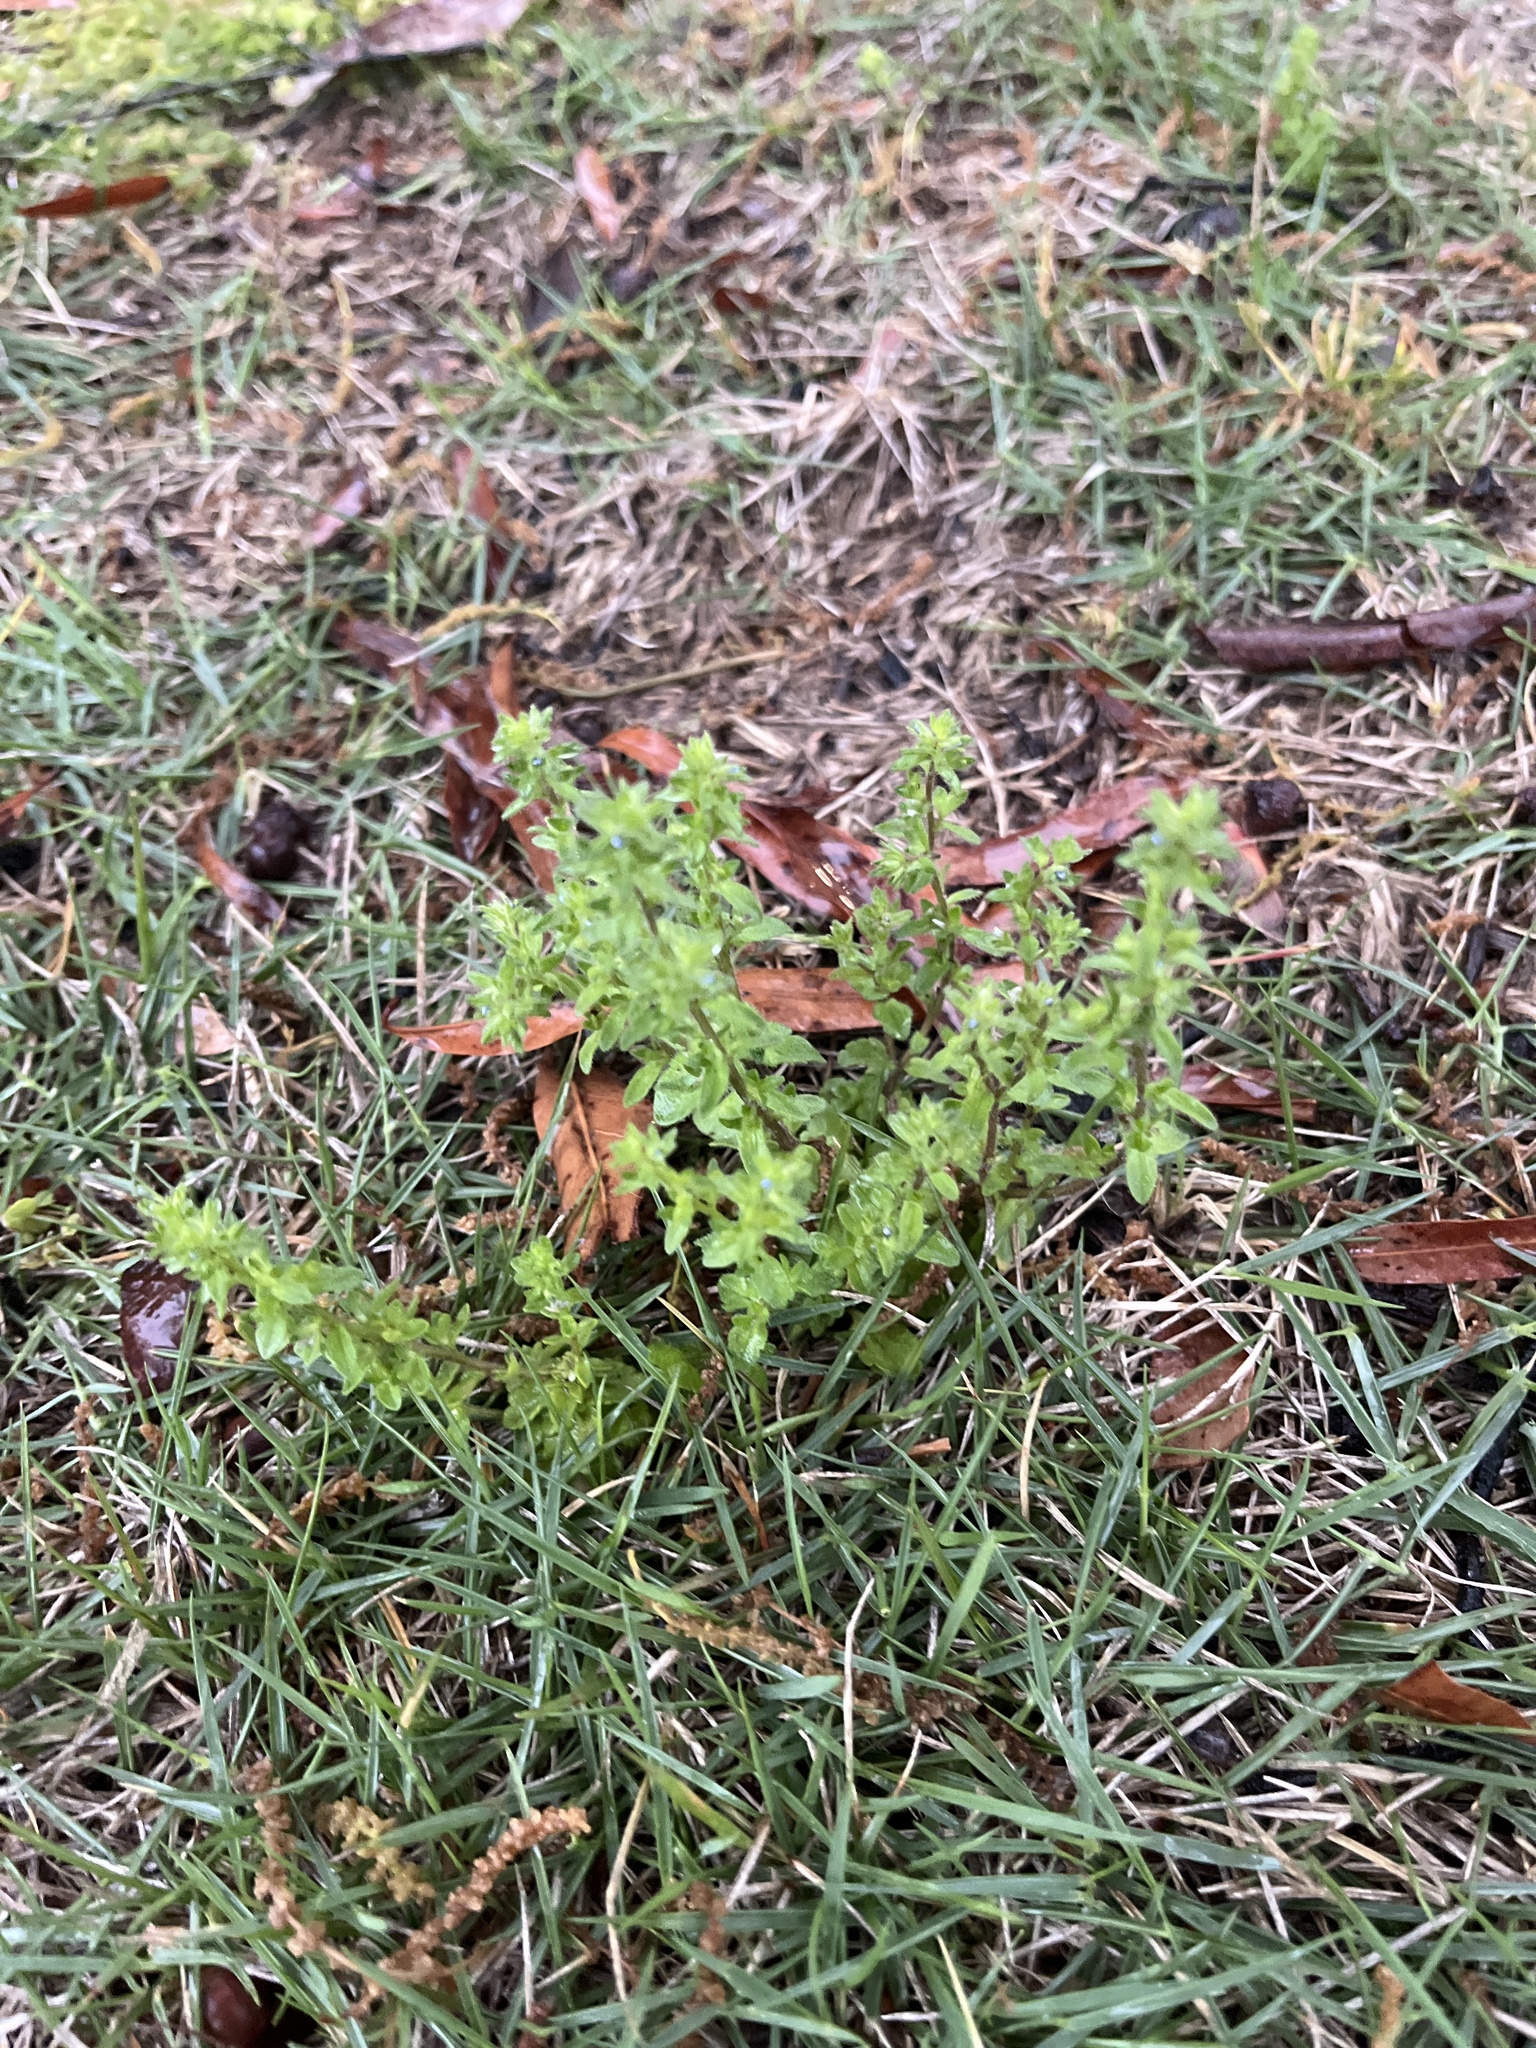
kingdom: Plantae
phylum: Tracheophyta
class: Magnoliopsida
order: Lamiales
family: Plantaginaceae
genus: Veronica
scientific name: Veronica arvensis
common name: Corn speedwell
